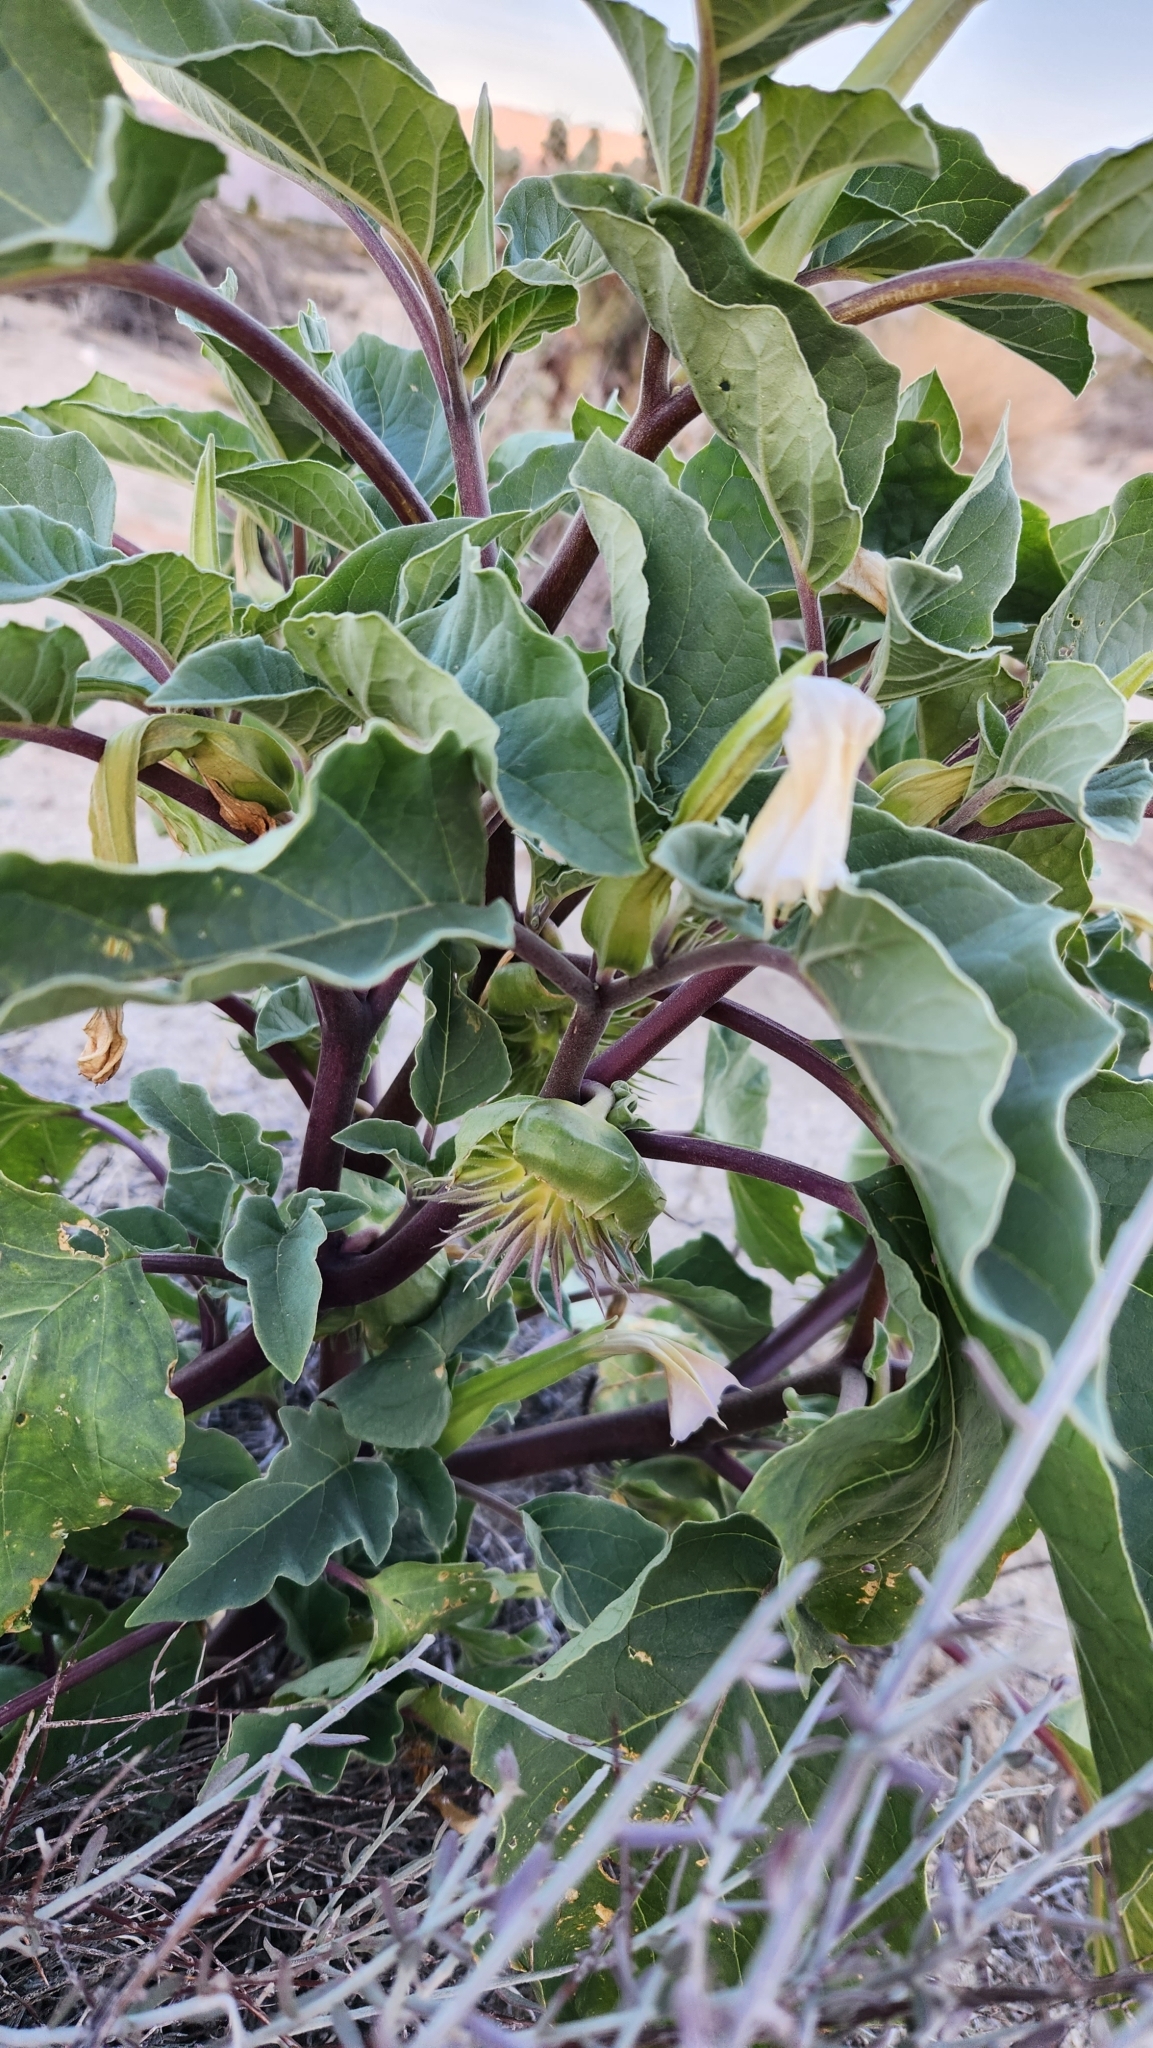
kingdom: Plantae
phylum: Tracheophyta
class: Magnoliopsida
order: Solanales
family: Solanaceae
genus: Datura
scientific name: Datura discolor
